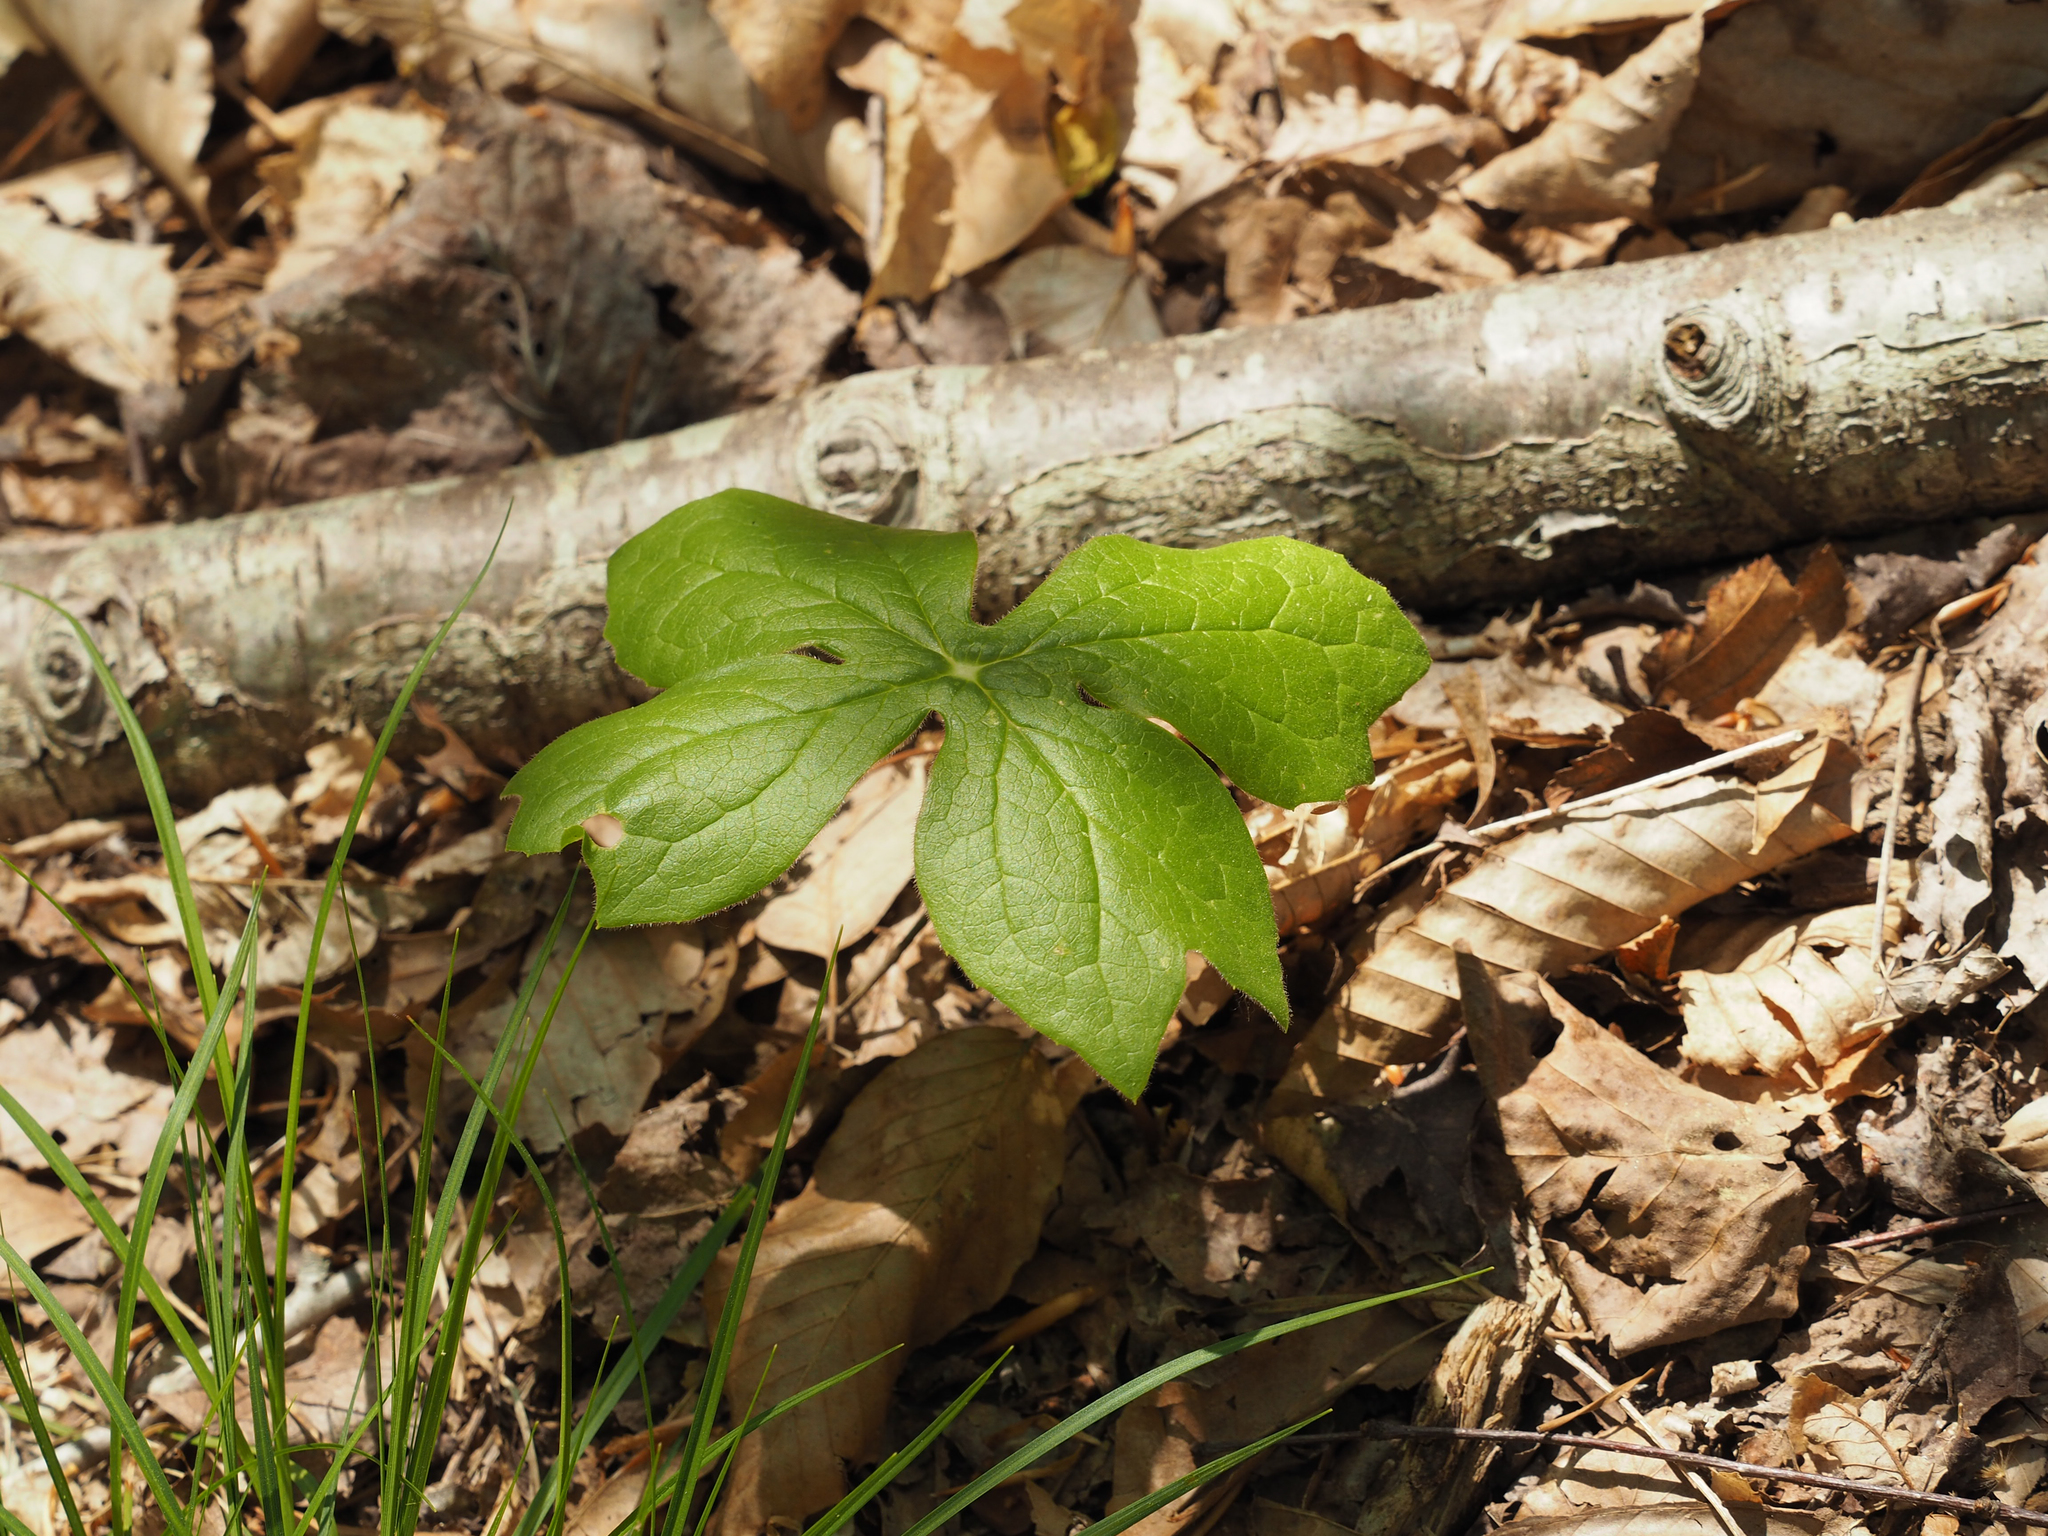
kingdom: Plantae
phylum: Tracheophyta
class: Magnoliopsida
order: Ranunculales
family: Berberidaceae
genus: Podophyllum
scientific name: Podophyllum peltatum
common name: Wild mandrake
